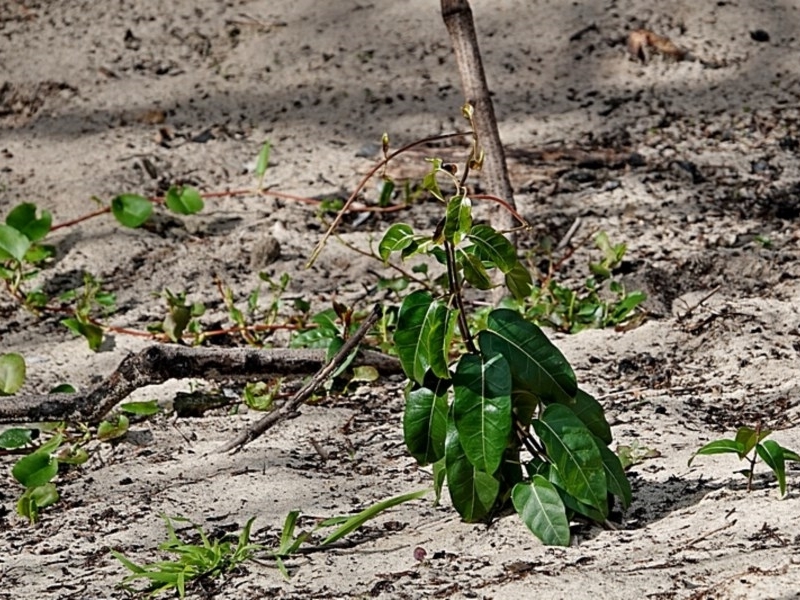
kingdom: Plantae
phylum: Tracheophyta
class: Magnoliopsida
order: Gentianales
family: Apocynaceae
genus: Leichhardtia
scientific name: Leichhardtia rostrata
